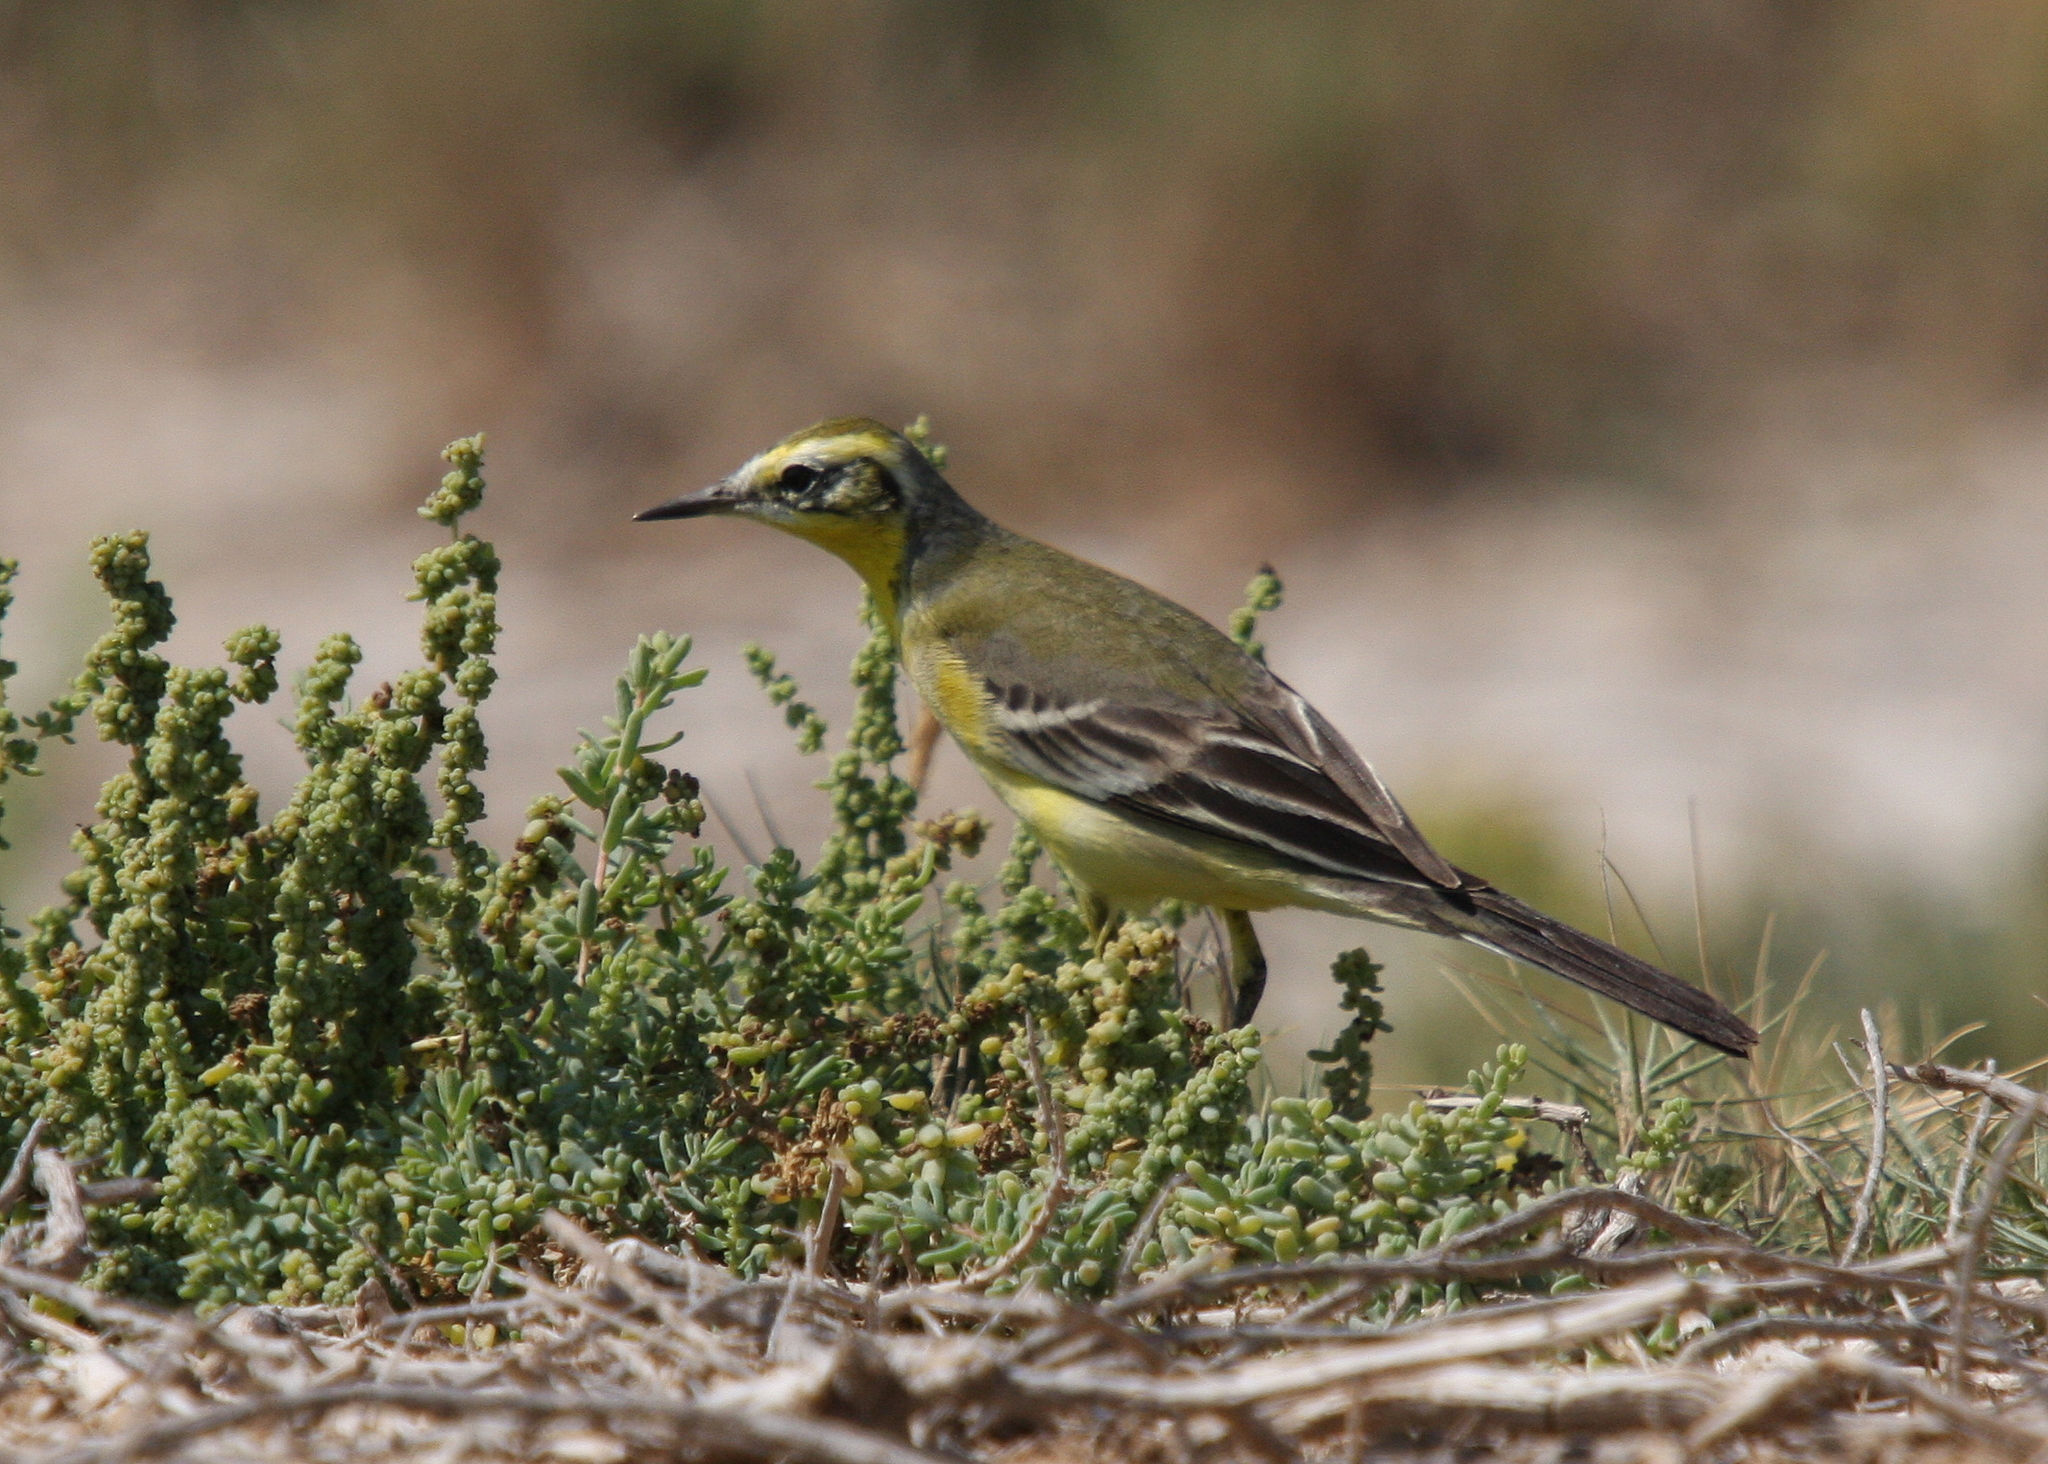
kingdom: Animalia
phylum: Chordata
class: Aves
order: Passeriformes
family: Motacillidae
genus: Motacilla
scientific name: Motacilla citreola
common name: Citrine wagtail
